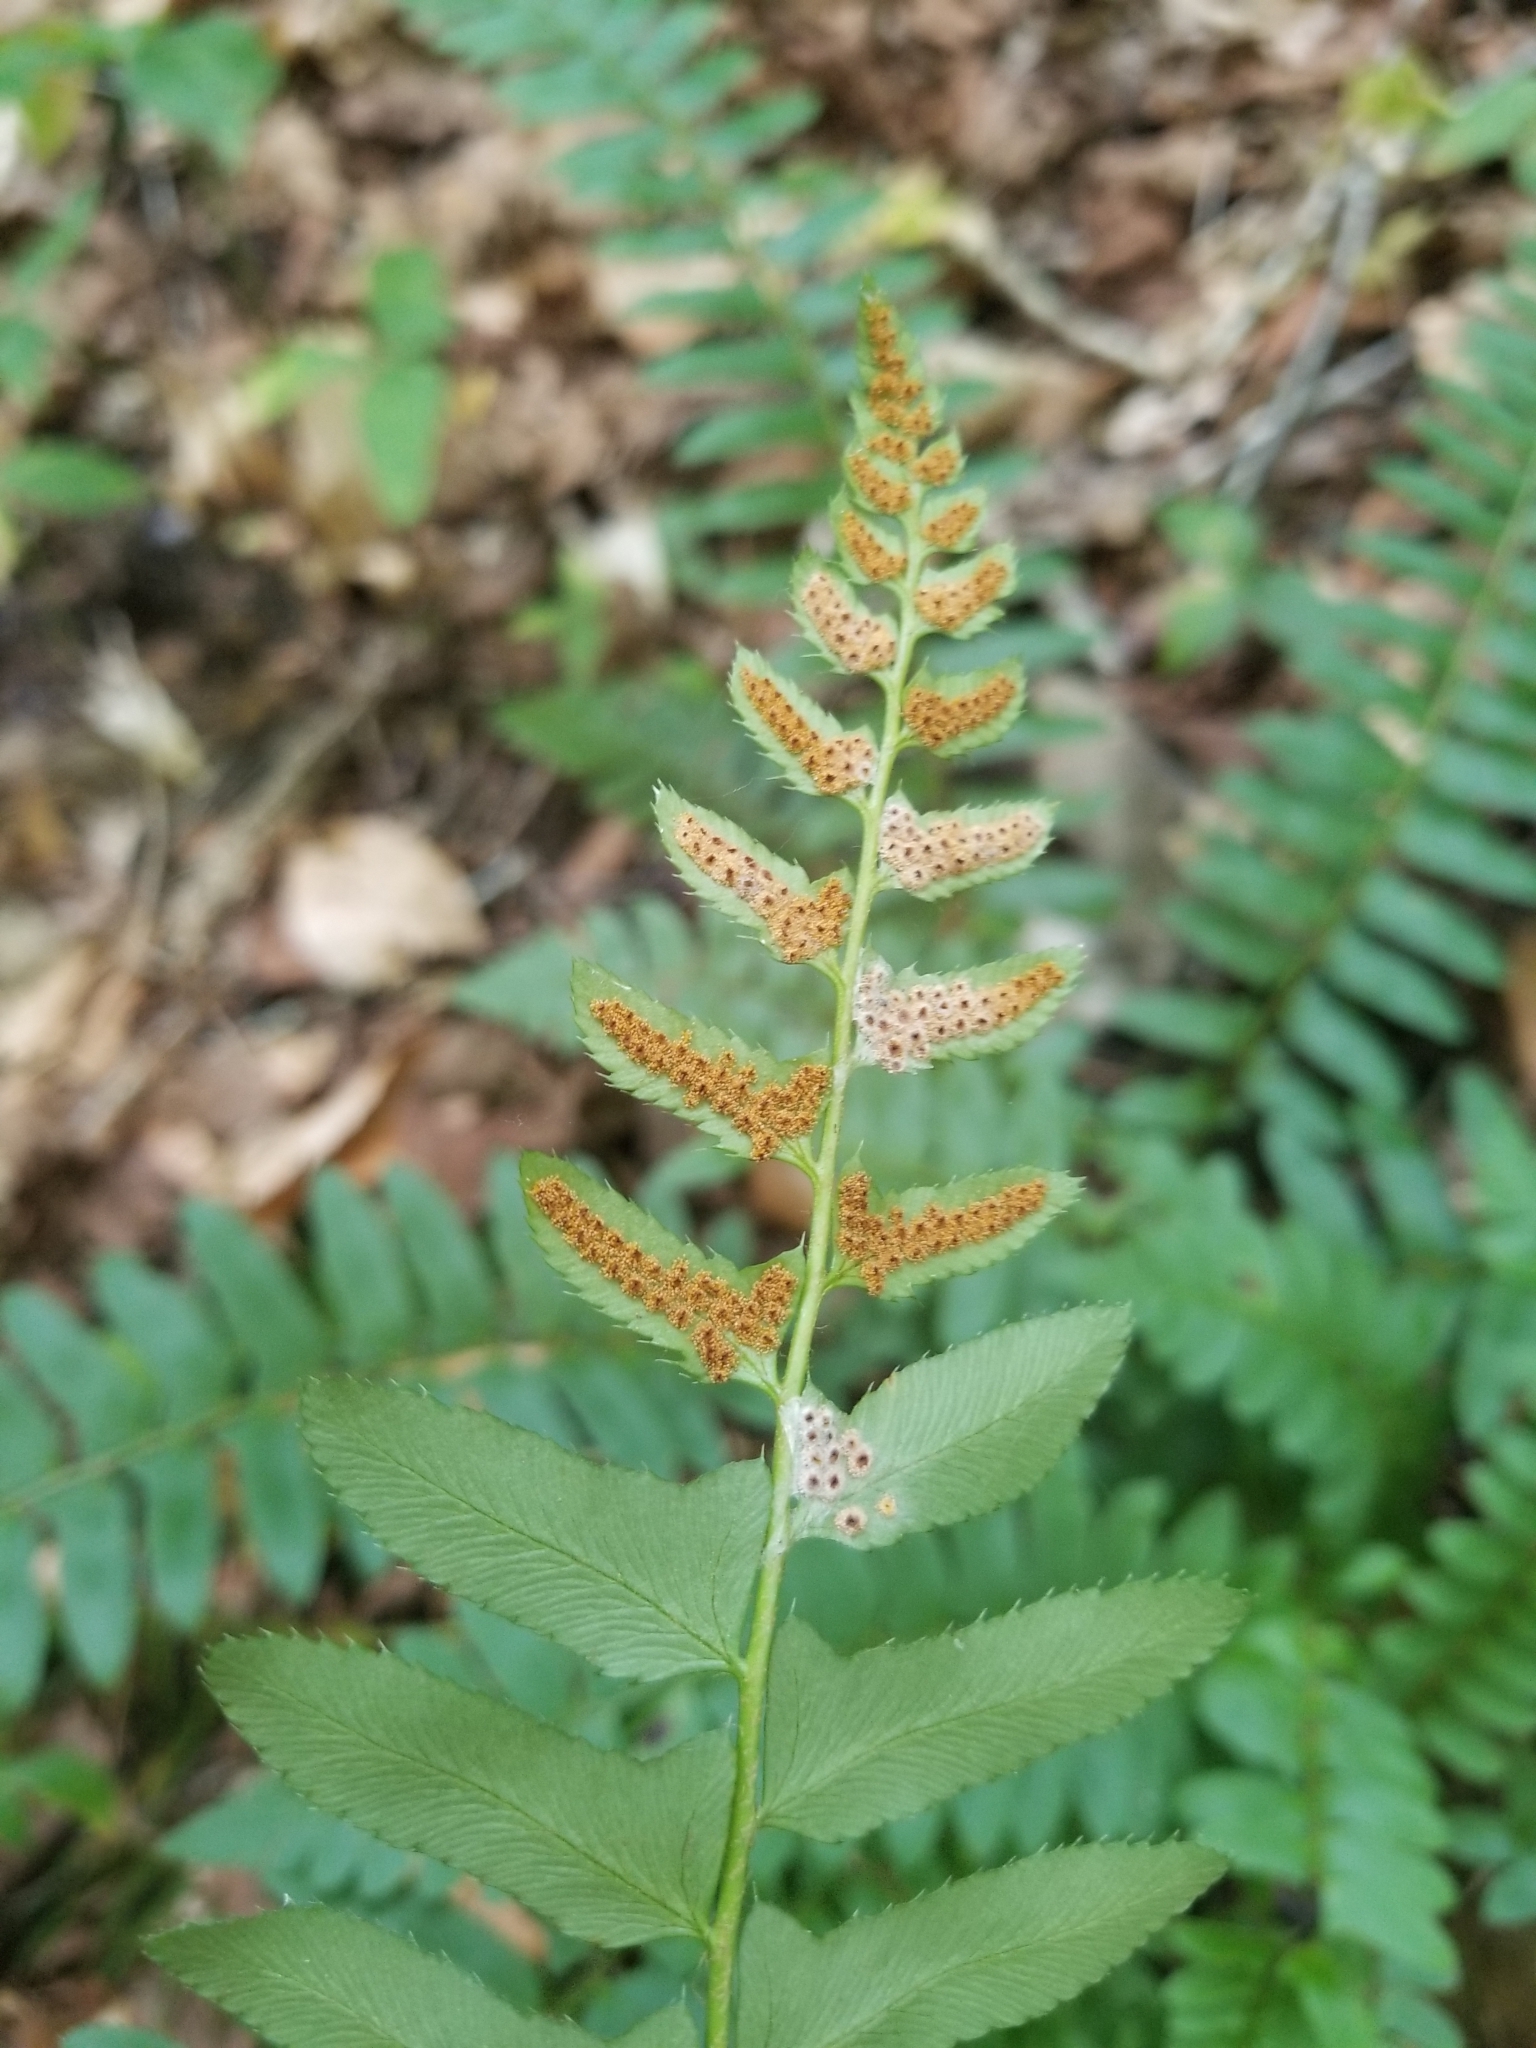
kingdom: Plantae
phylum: Tracheophyta
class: Polypodiopsida
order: Polypodiales
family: Dryopteridaceae
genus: Polystichum
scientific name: Polystichum acrostichoides
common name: Christmas fern
